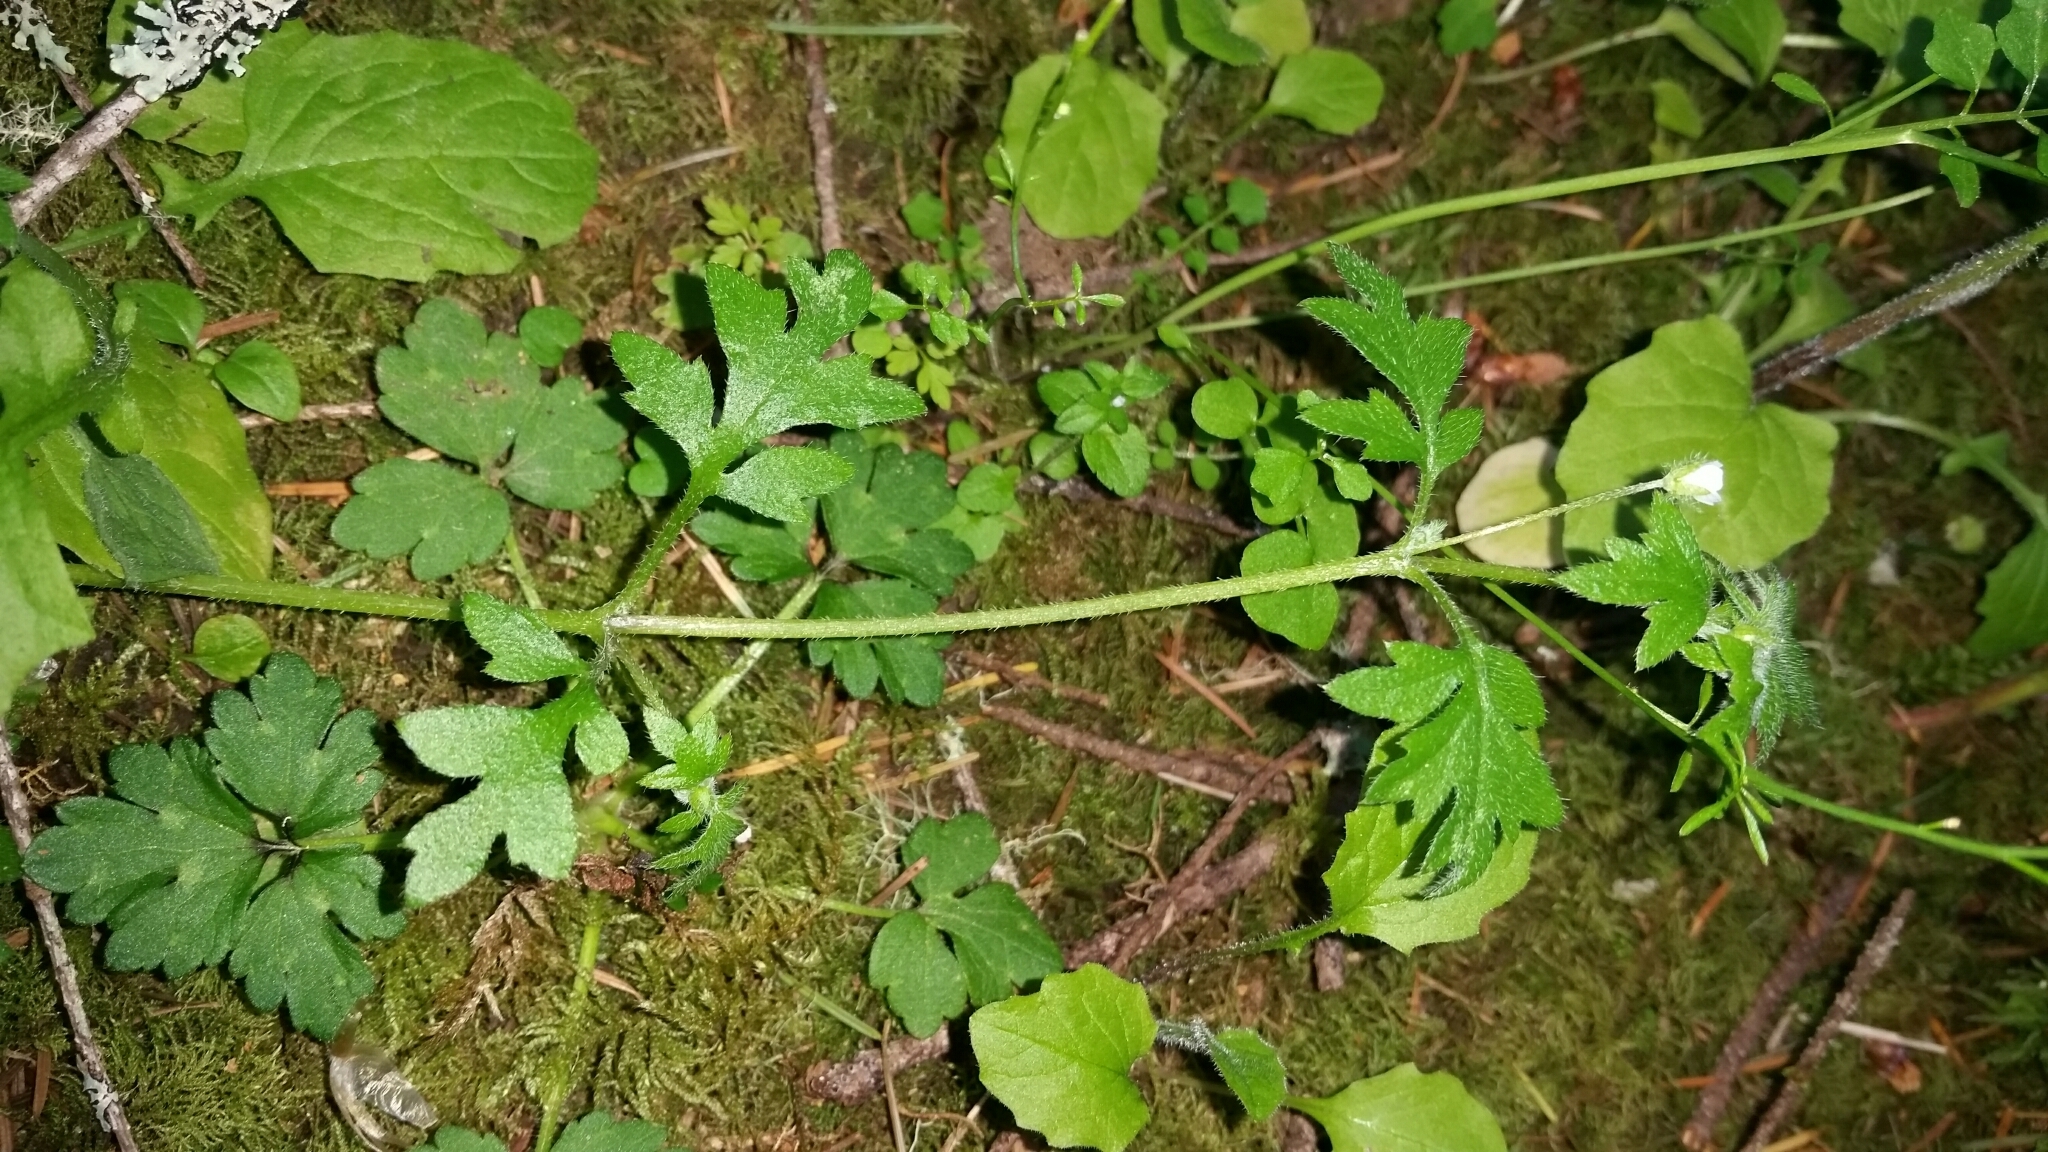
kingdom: Plantae
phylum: Tracheophyta
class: Magnoliopsida
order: Boraginales
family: Hydrophyllaceae
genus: Nemophila
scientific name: Nemophila parviflora
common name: Small-flowered baby-blue-eyes
